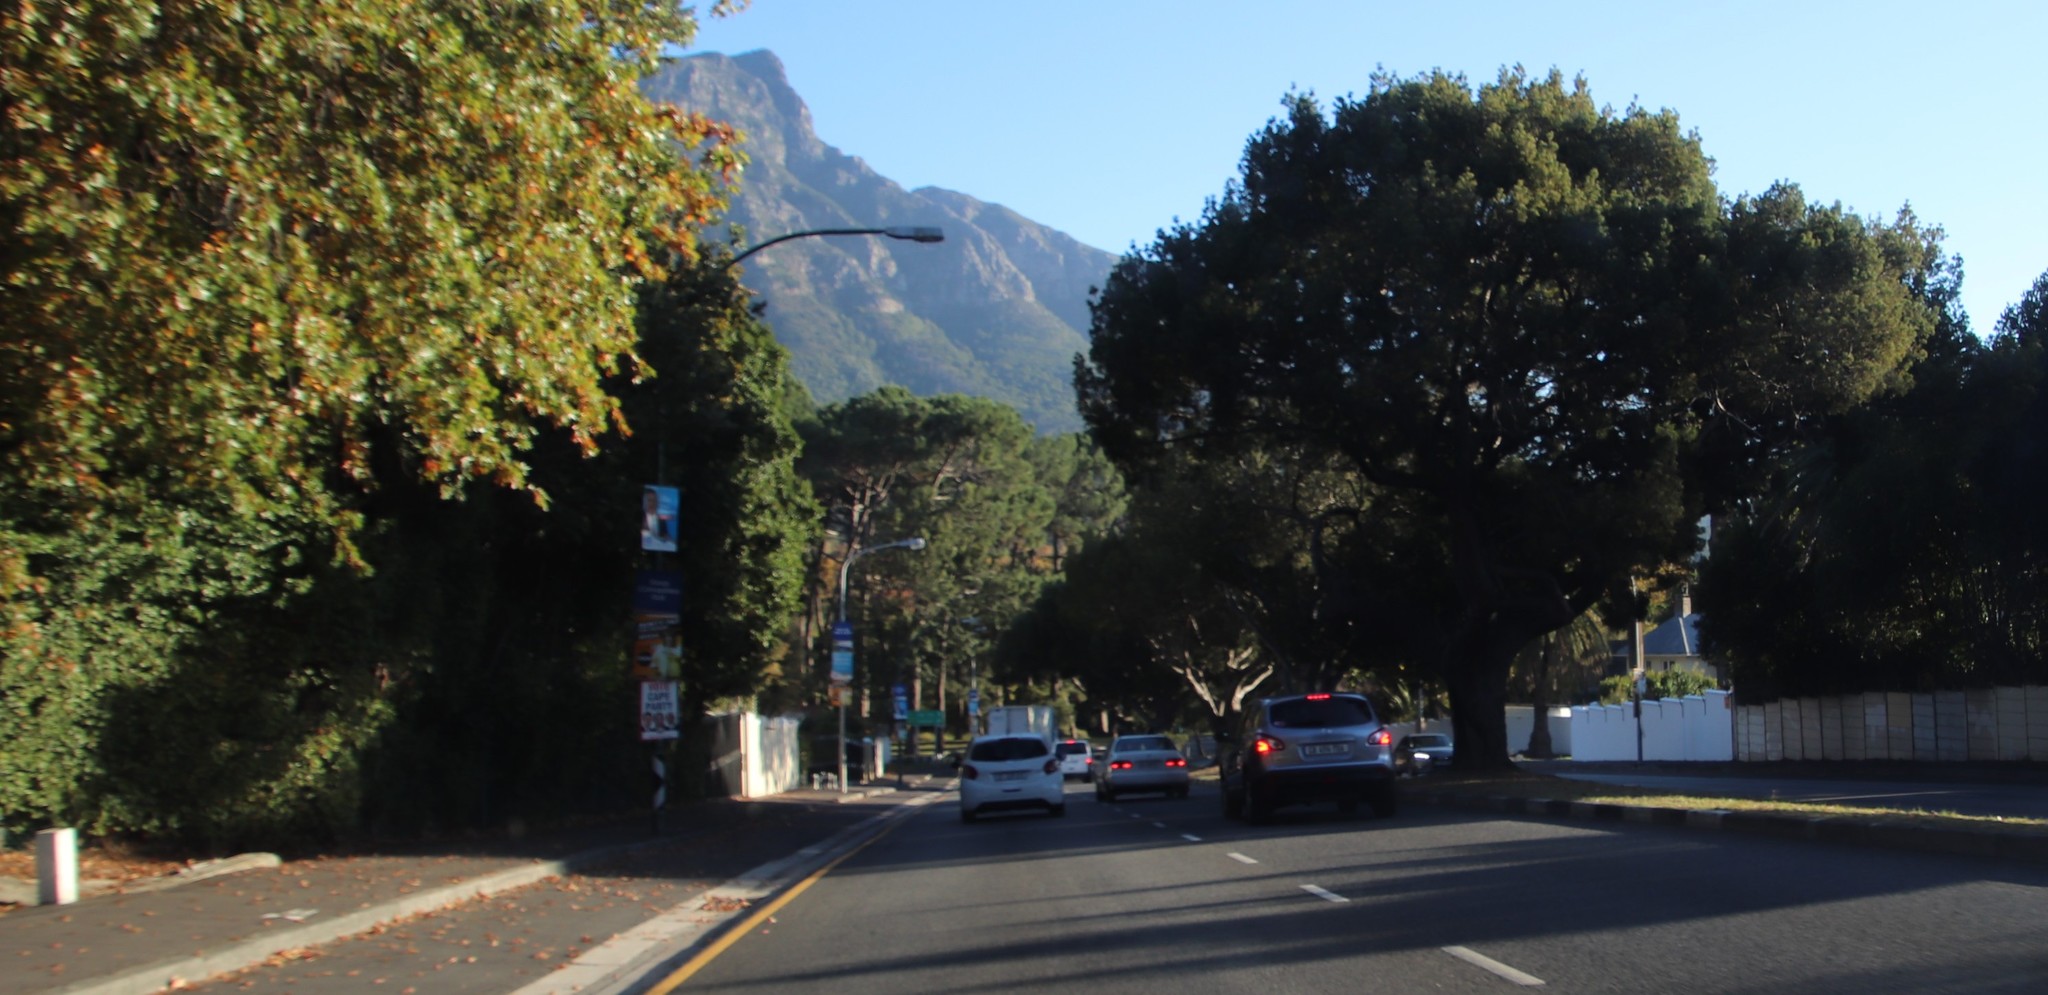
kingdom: Plantae
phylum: Tracheophyta
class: Pinopsida
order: Pinales
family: Podocarpaceae
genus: Afrocarpus
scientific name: Afrocarpus falcatus
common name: Bastard yellowwood
